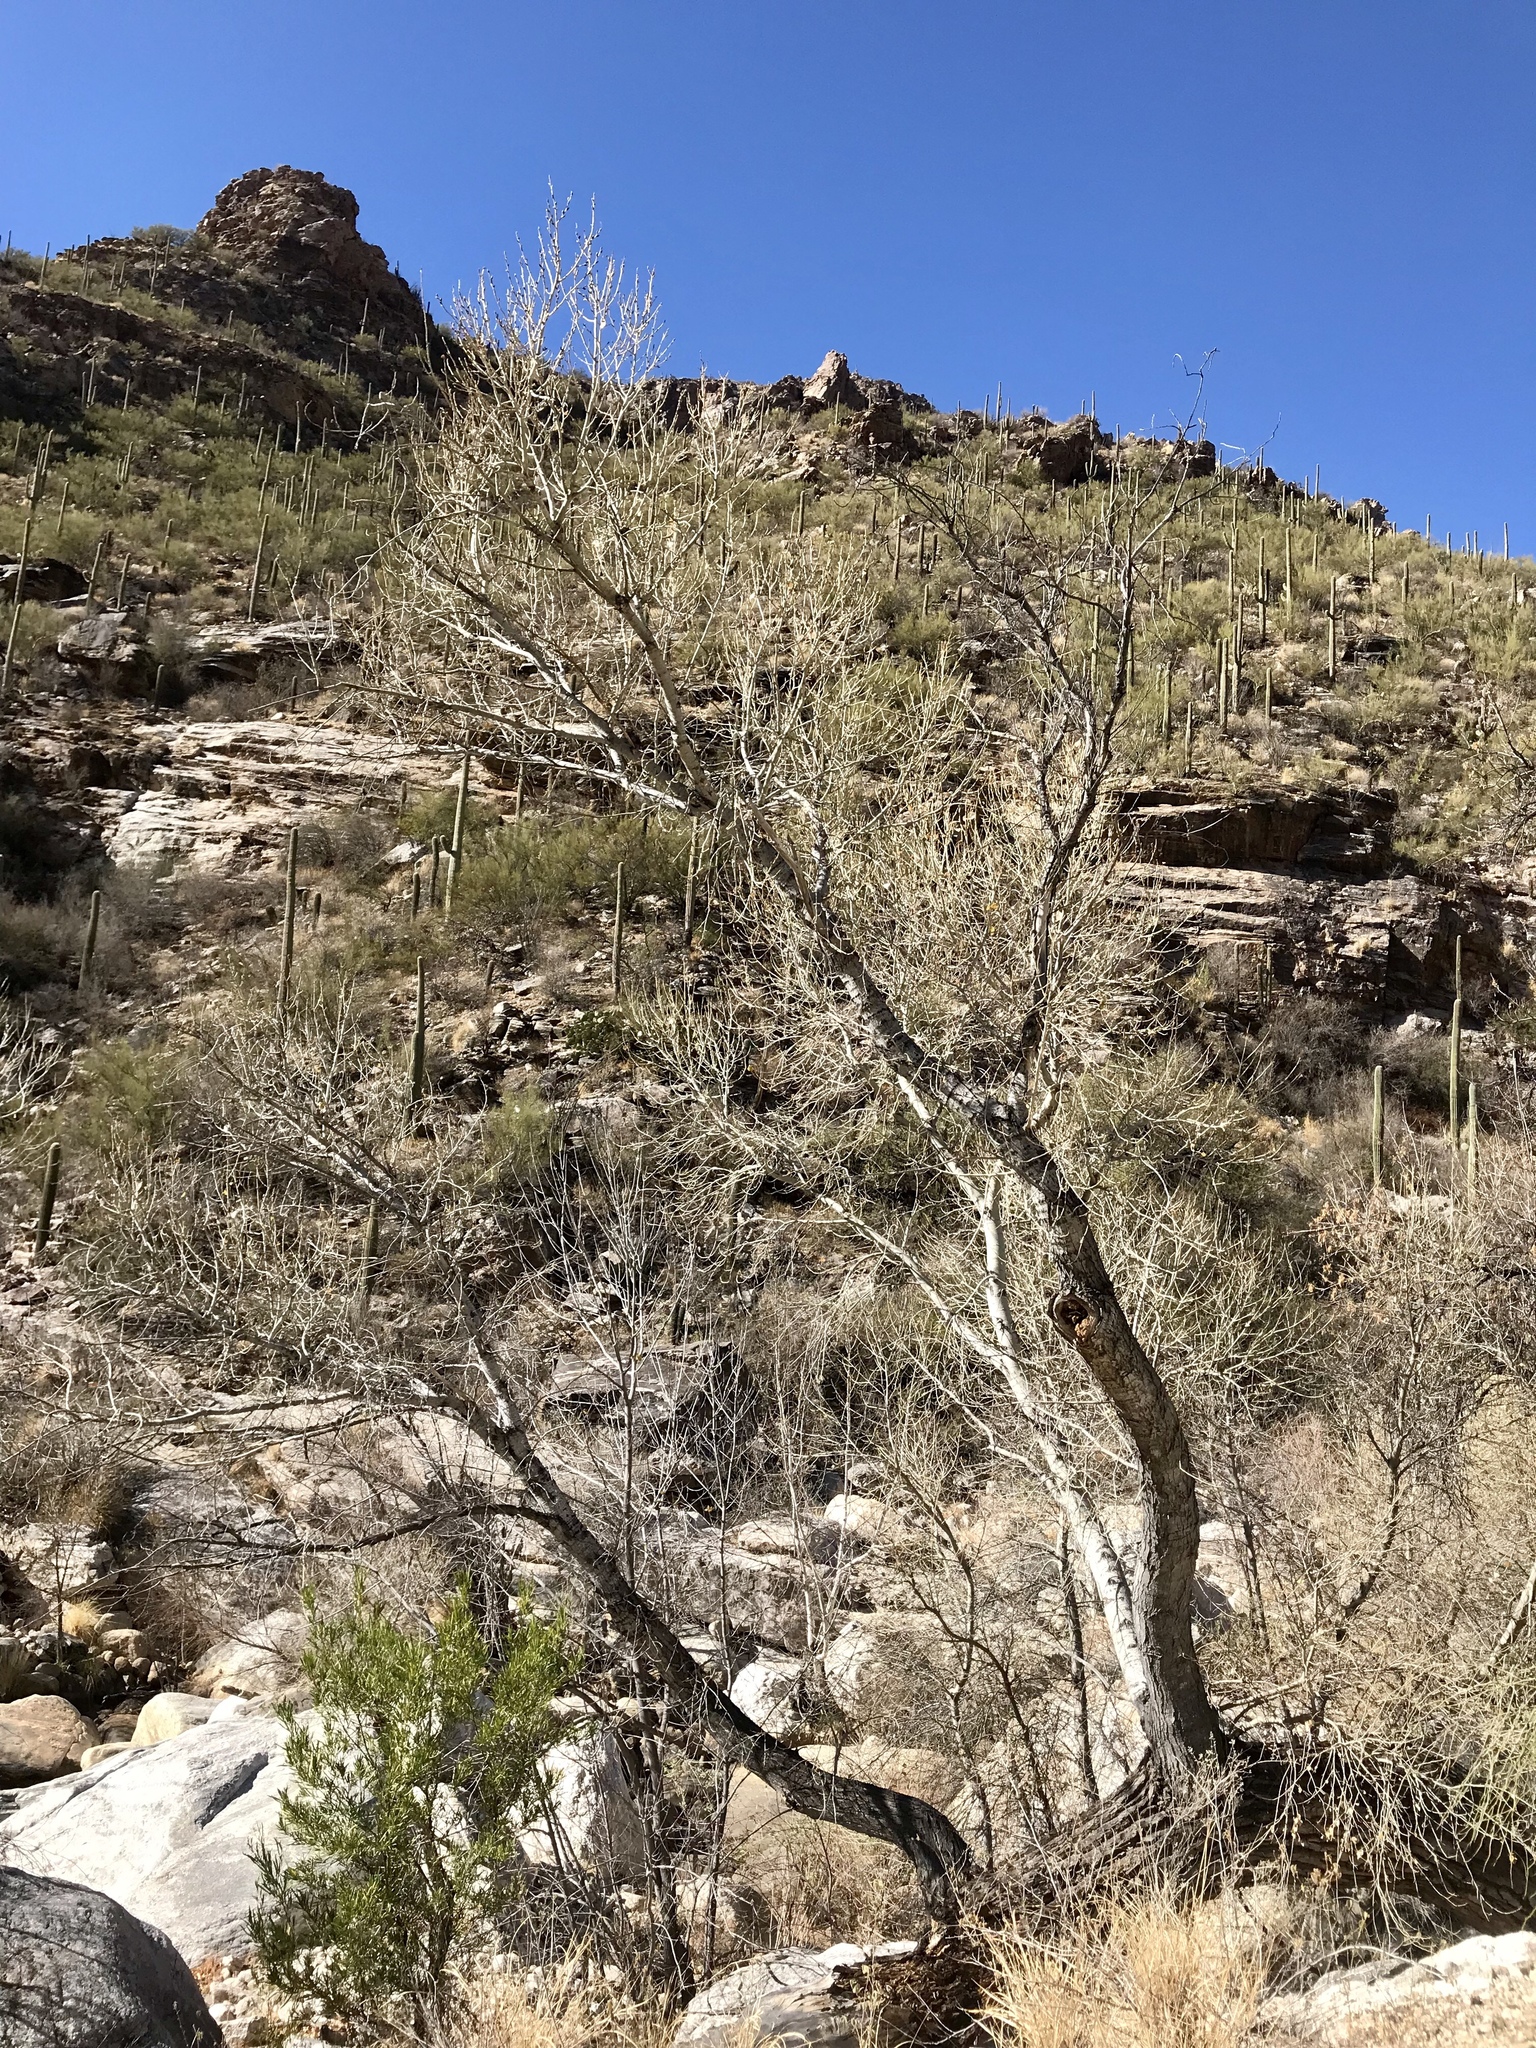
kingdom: Plantae
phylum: Tracheophyta
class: Magnoliopsida
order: Proteales
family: Platanaceae
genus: Platanus
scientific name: Platanus wrightii
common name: Arizona sycamore
